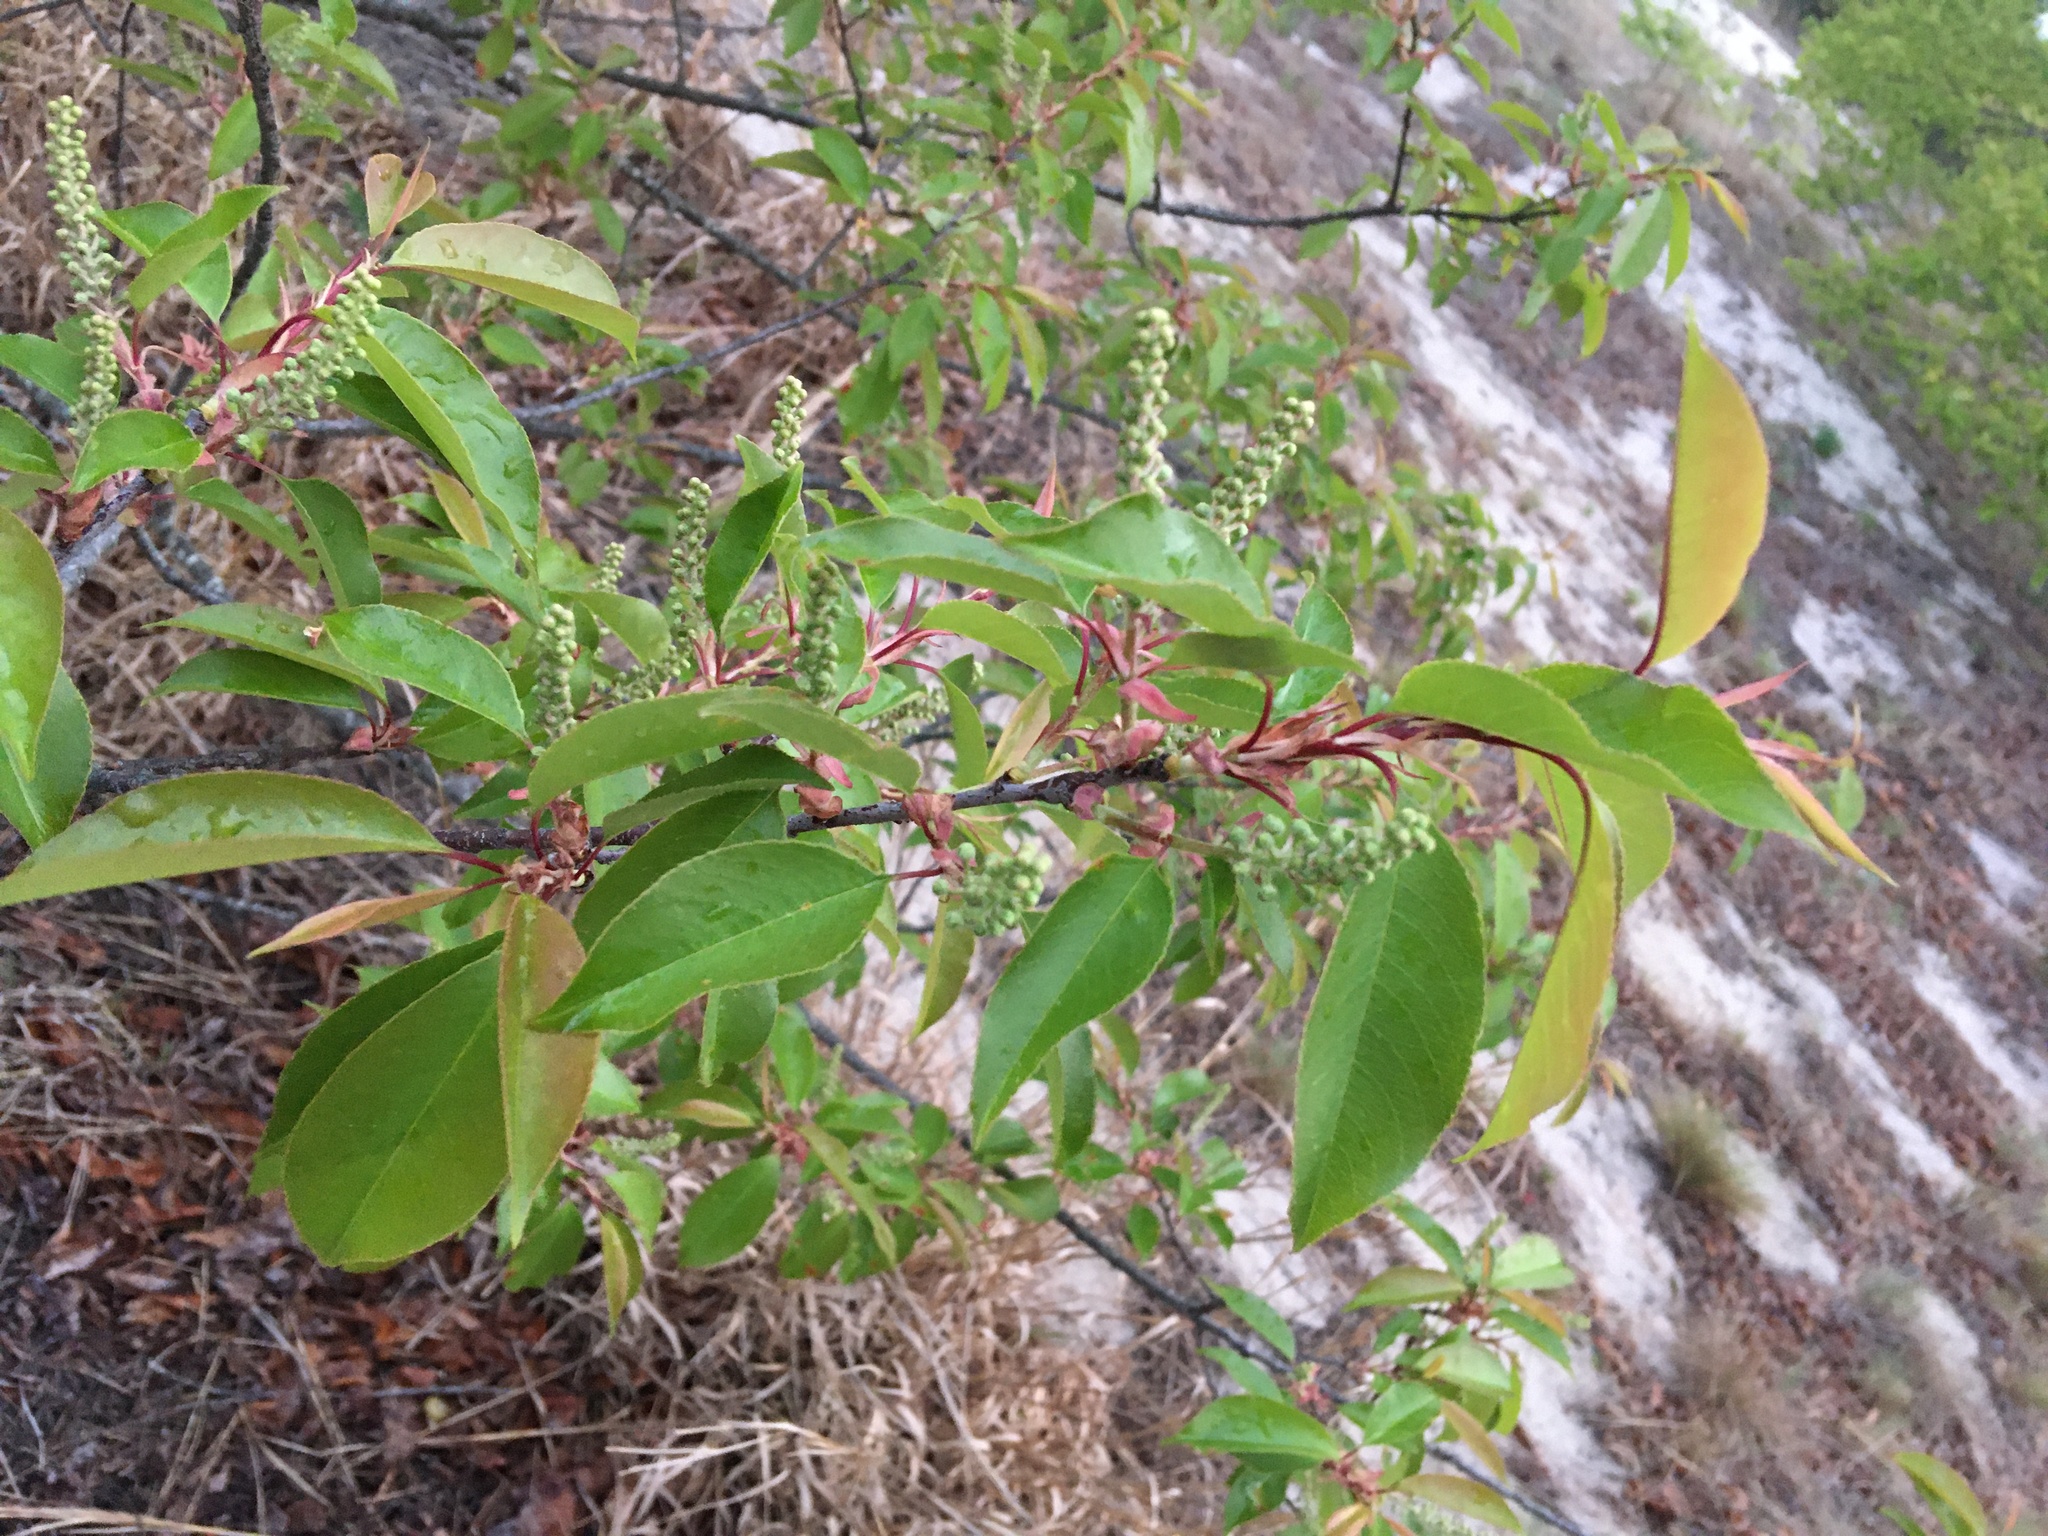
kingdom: Plantae
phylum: Tracheophyta
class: Magnoliopsida
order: Rosales
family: Rosaceae
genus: Prunus
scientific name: Prunus serotina
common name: Black cherry
